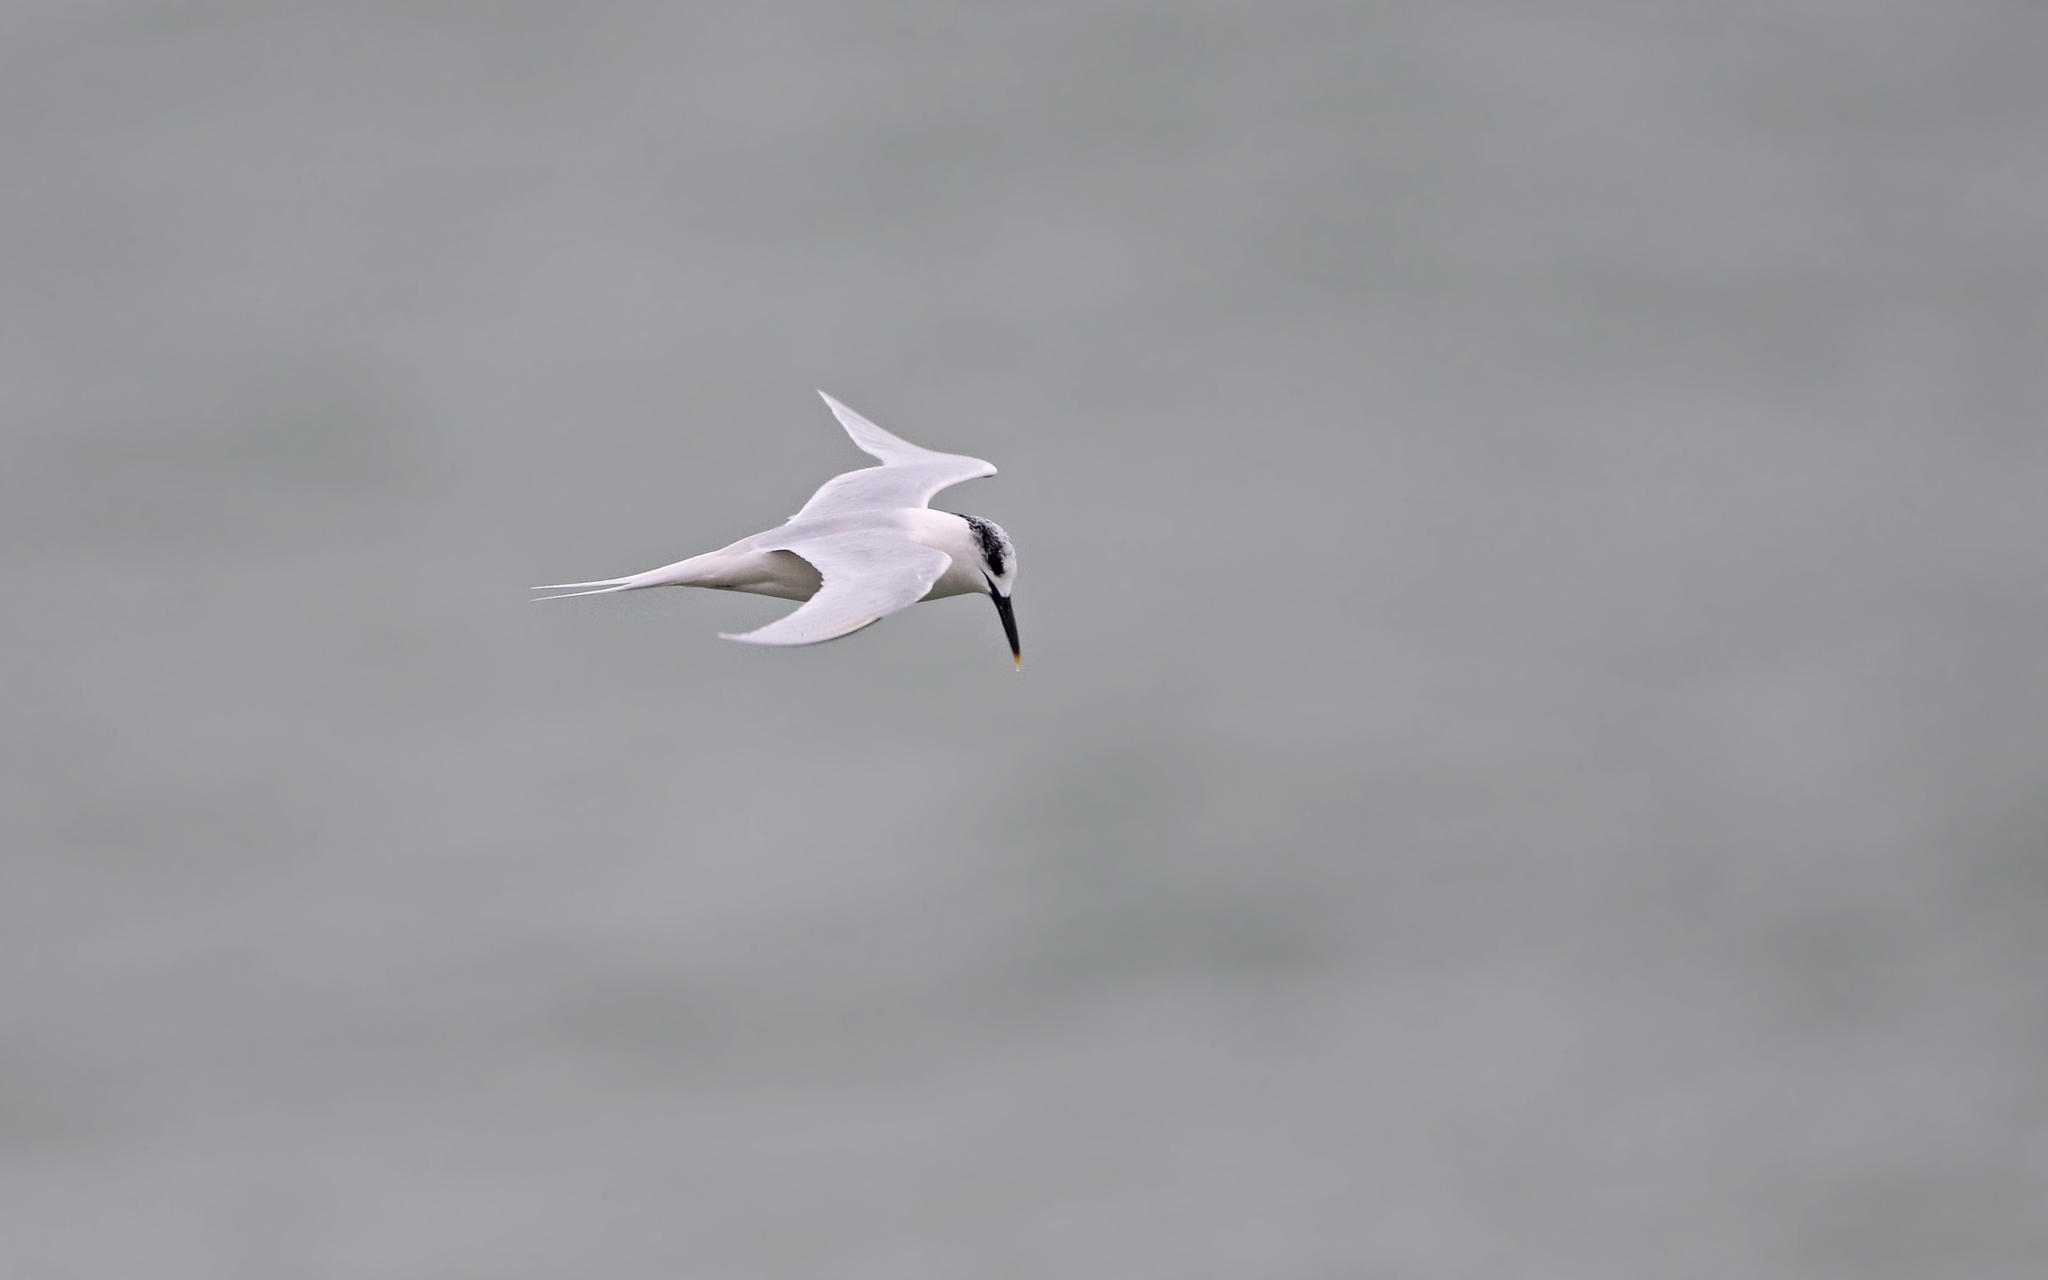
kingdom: Animalia
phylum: Chordata
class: Aves
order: Charadriiformes
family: Laridae
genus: Thalasseus
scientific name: Thalasseus sandvicensis
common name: Sandwich tern
